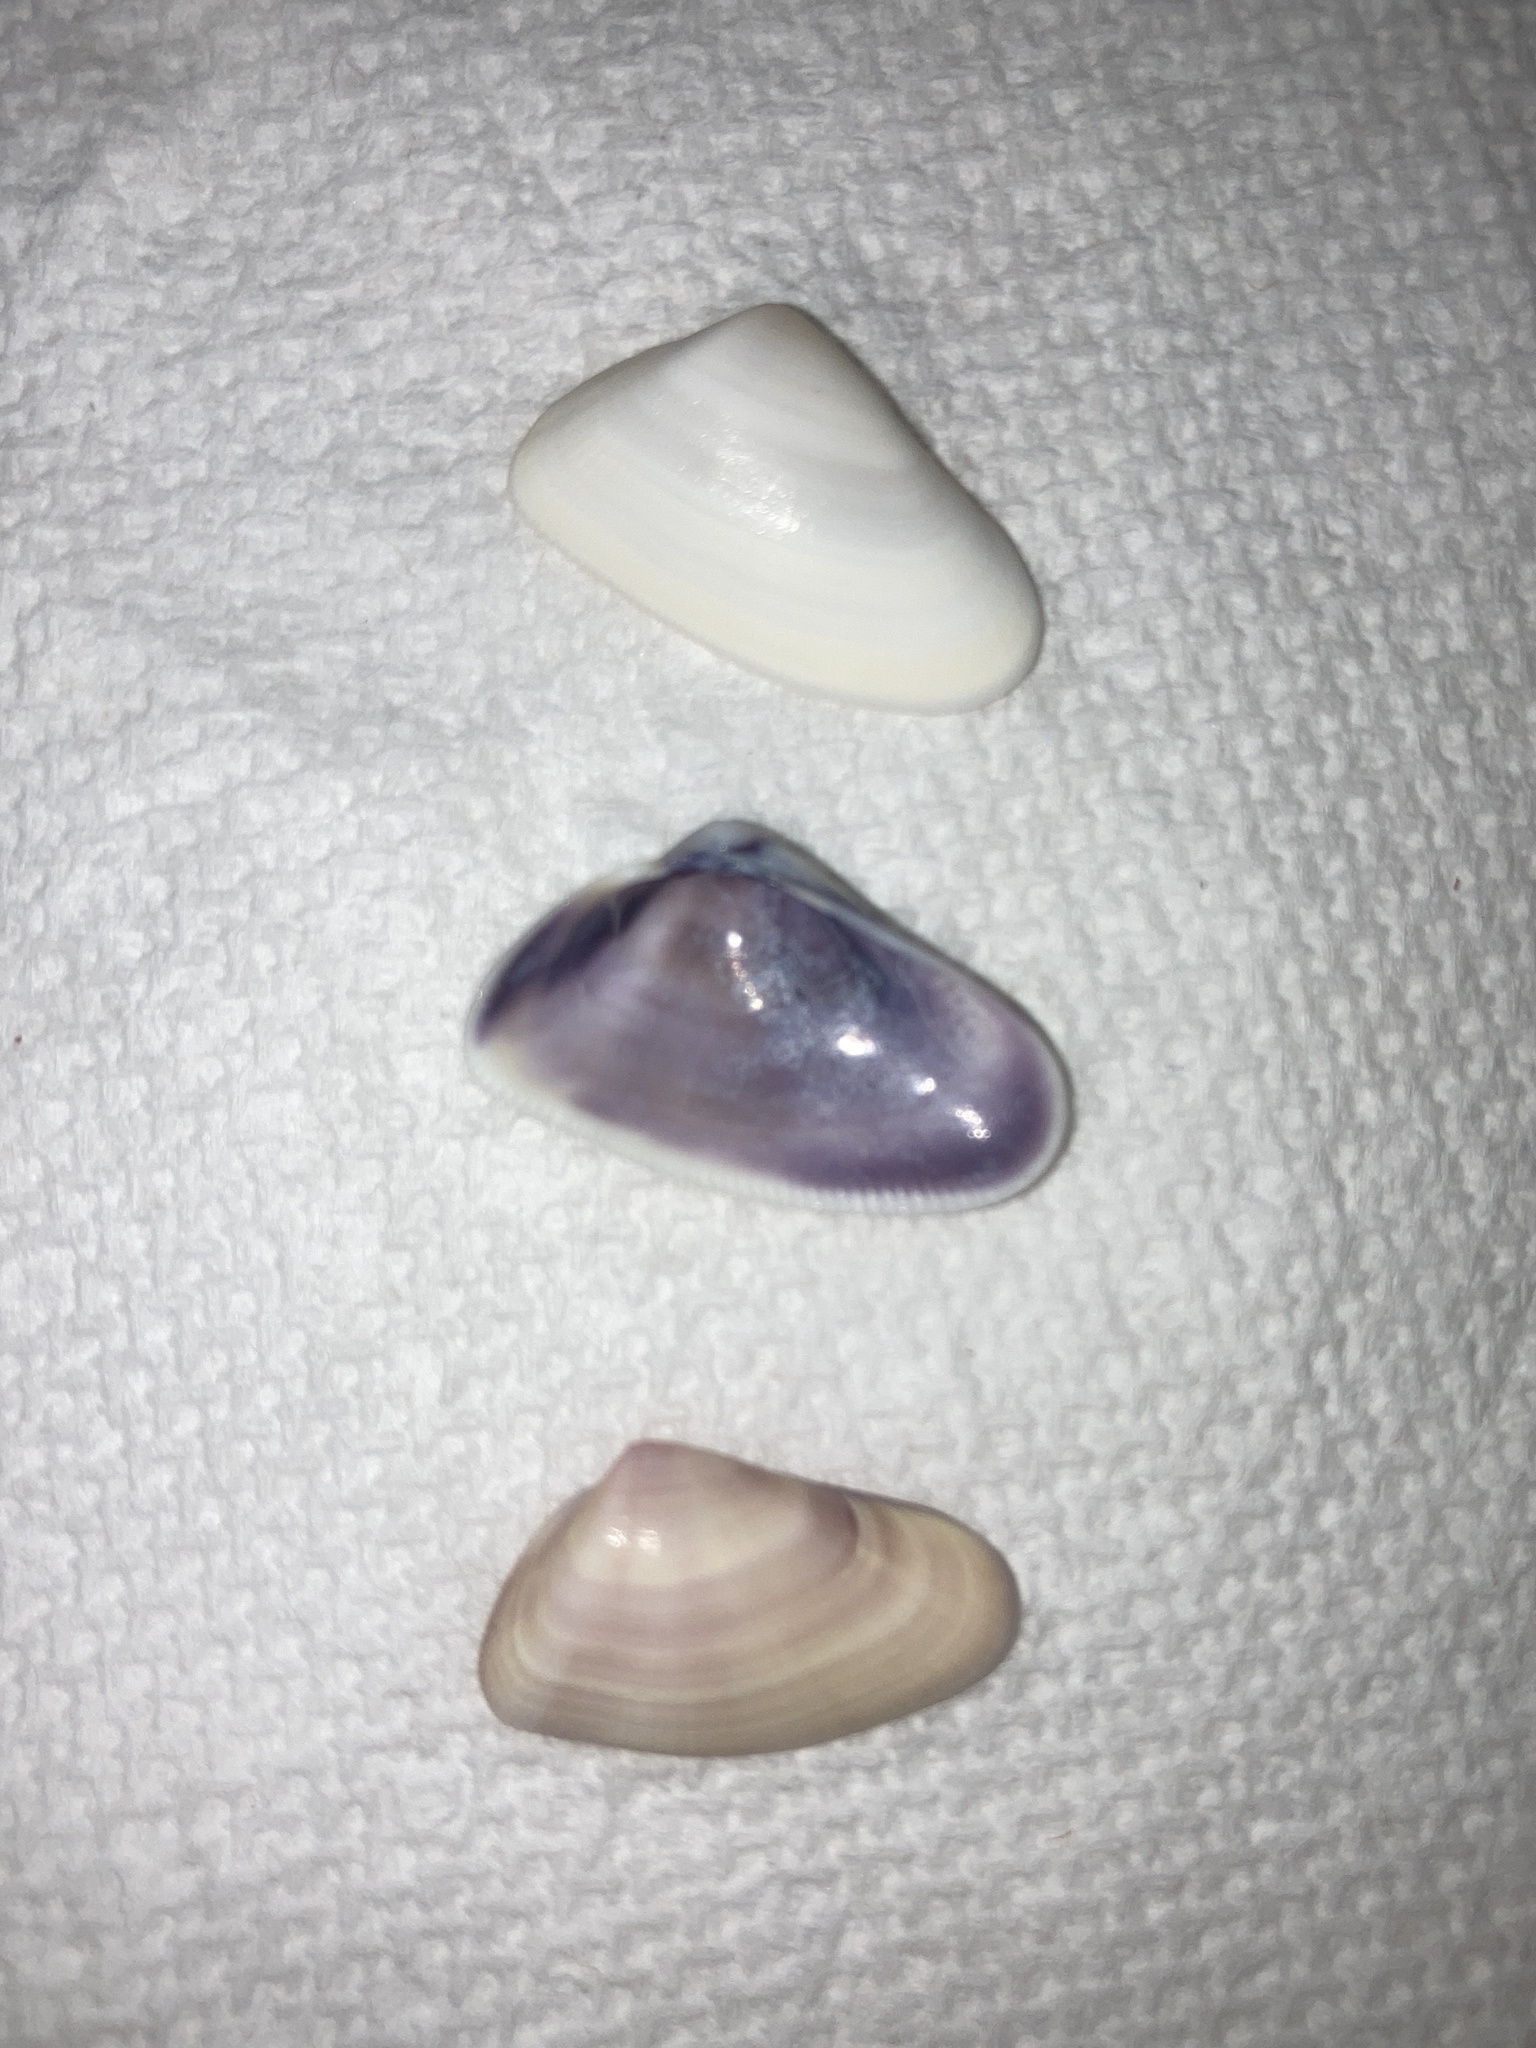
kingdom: Animalia
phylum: Mollusca
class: Bivalvia
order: Cardiida
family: Donacidae
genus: Donax
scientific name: Donax variabilis
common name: Butterfly shell
